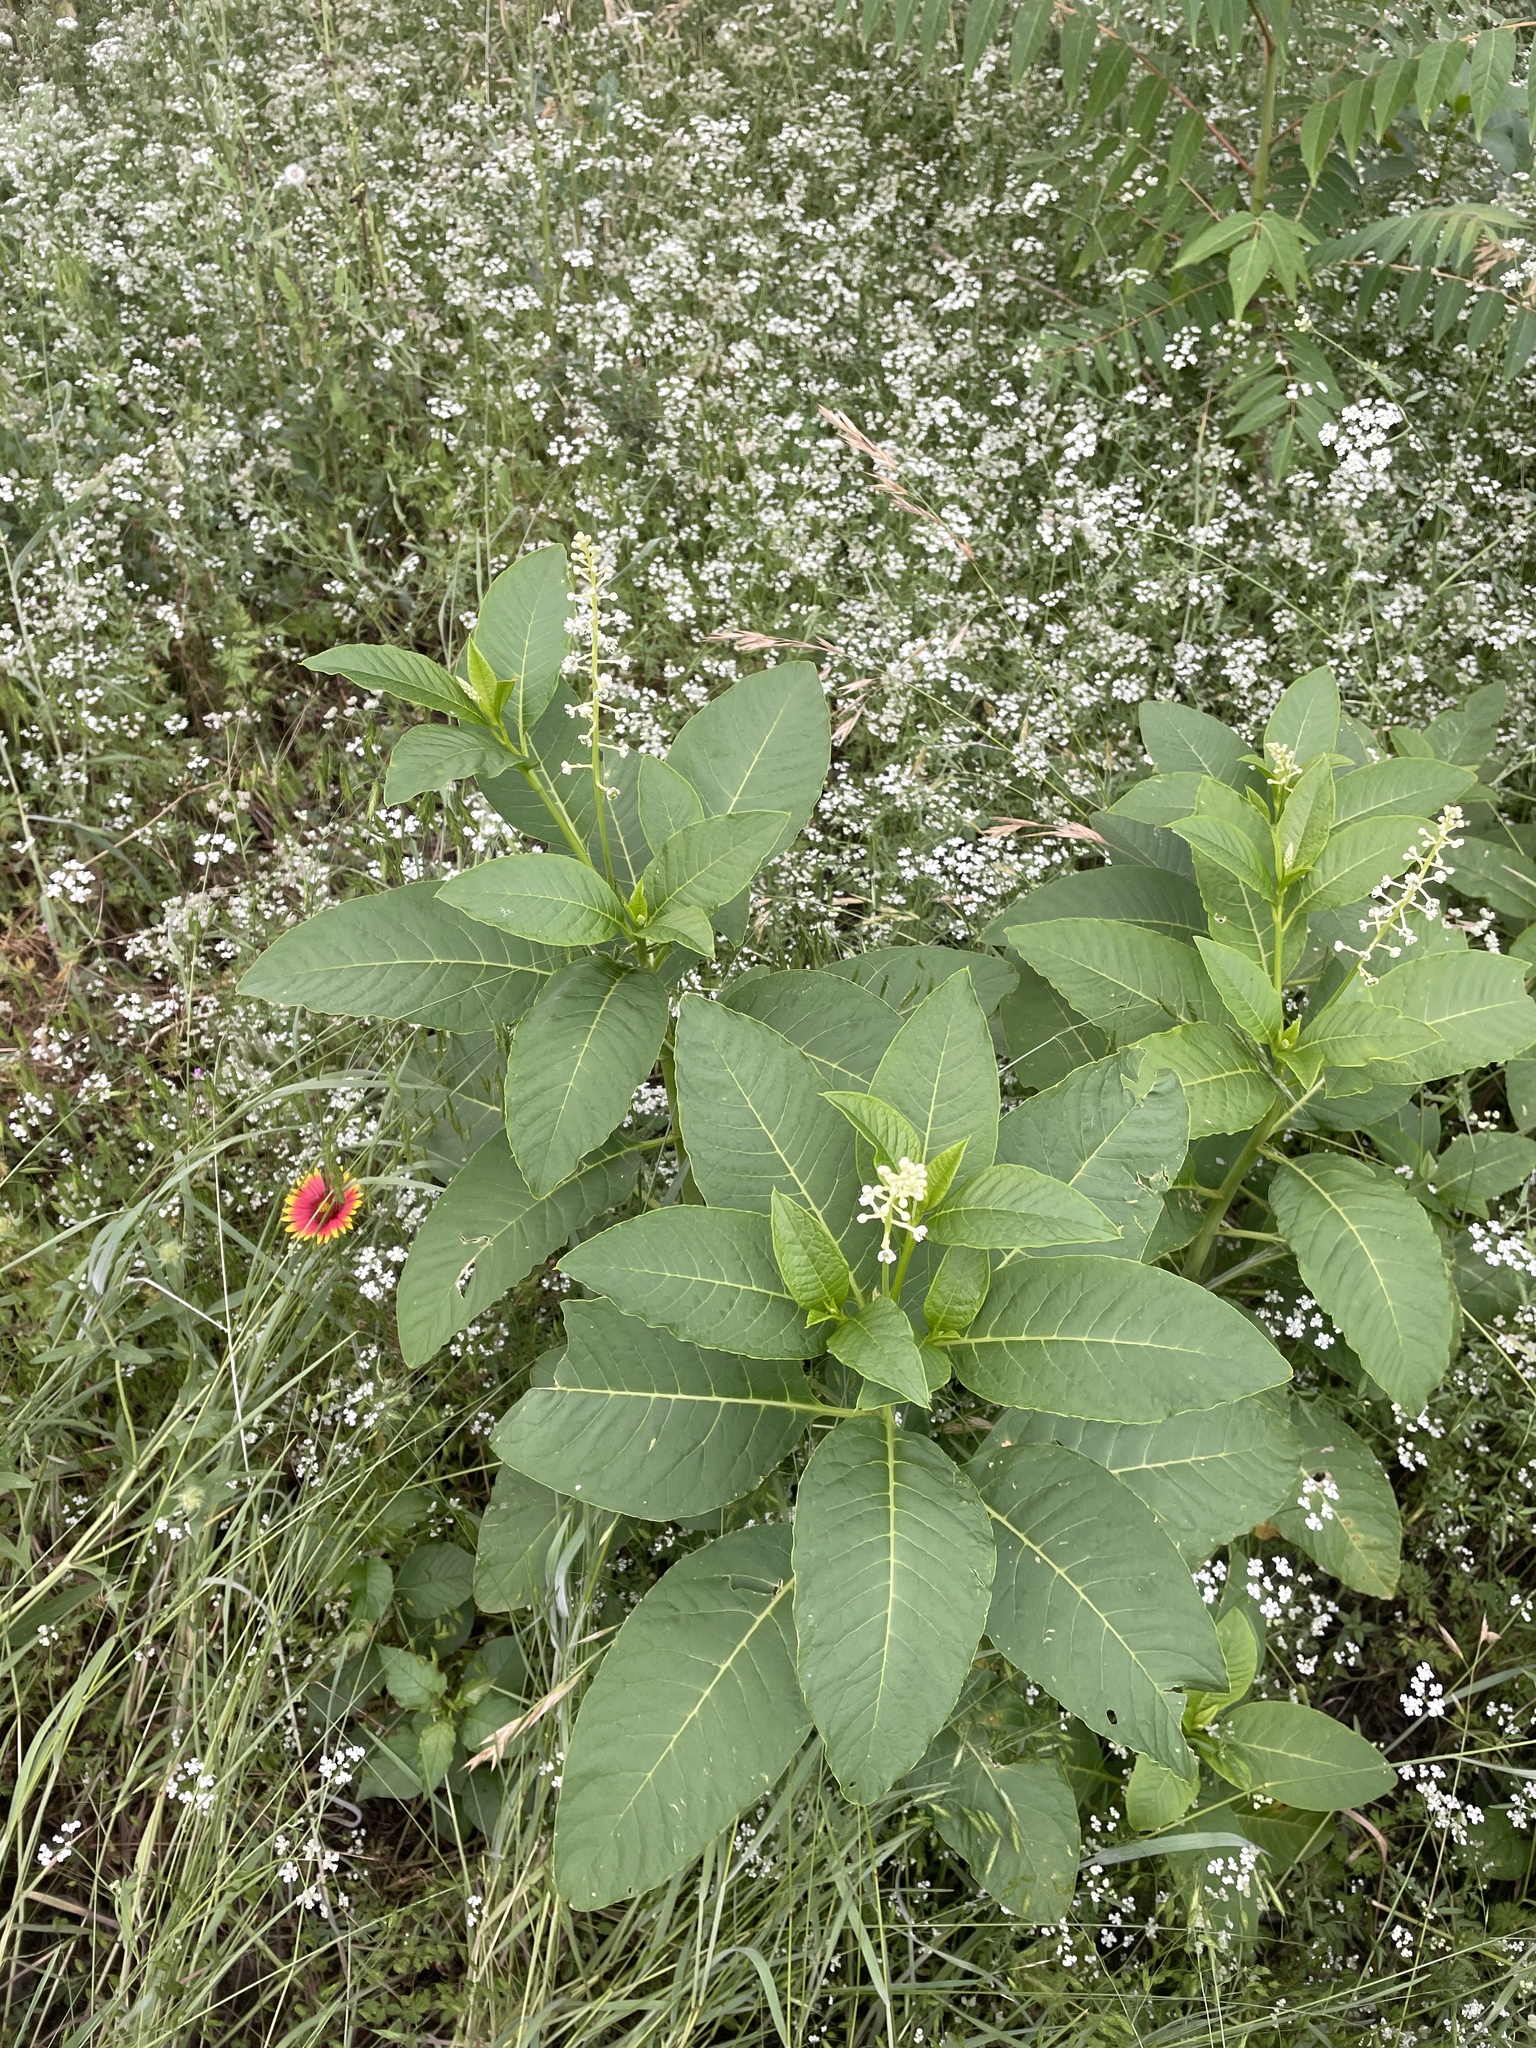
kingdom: Plantae
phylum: Tracheophyta
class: Magnoliopsida
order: Caryophyllales
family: Phytolaccaceae
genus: Phytolacca
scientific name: Phytolacca americana
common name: American pokeweed
